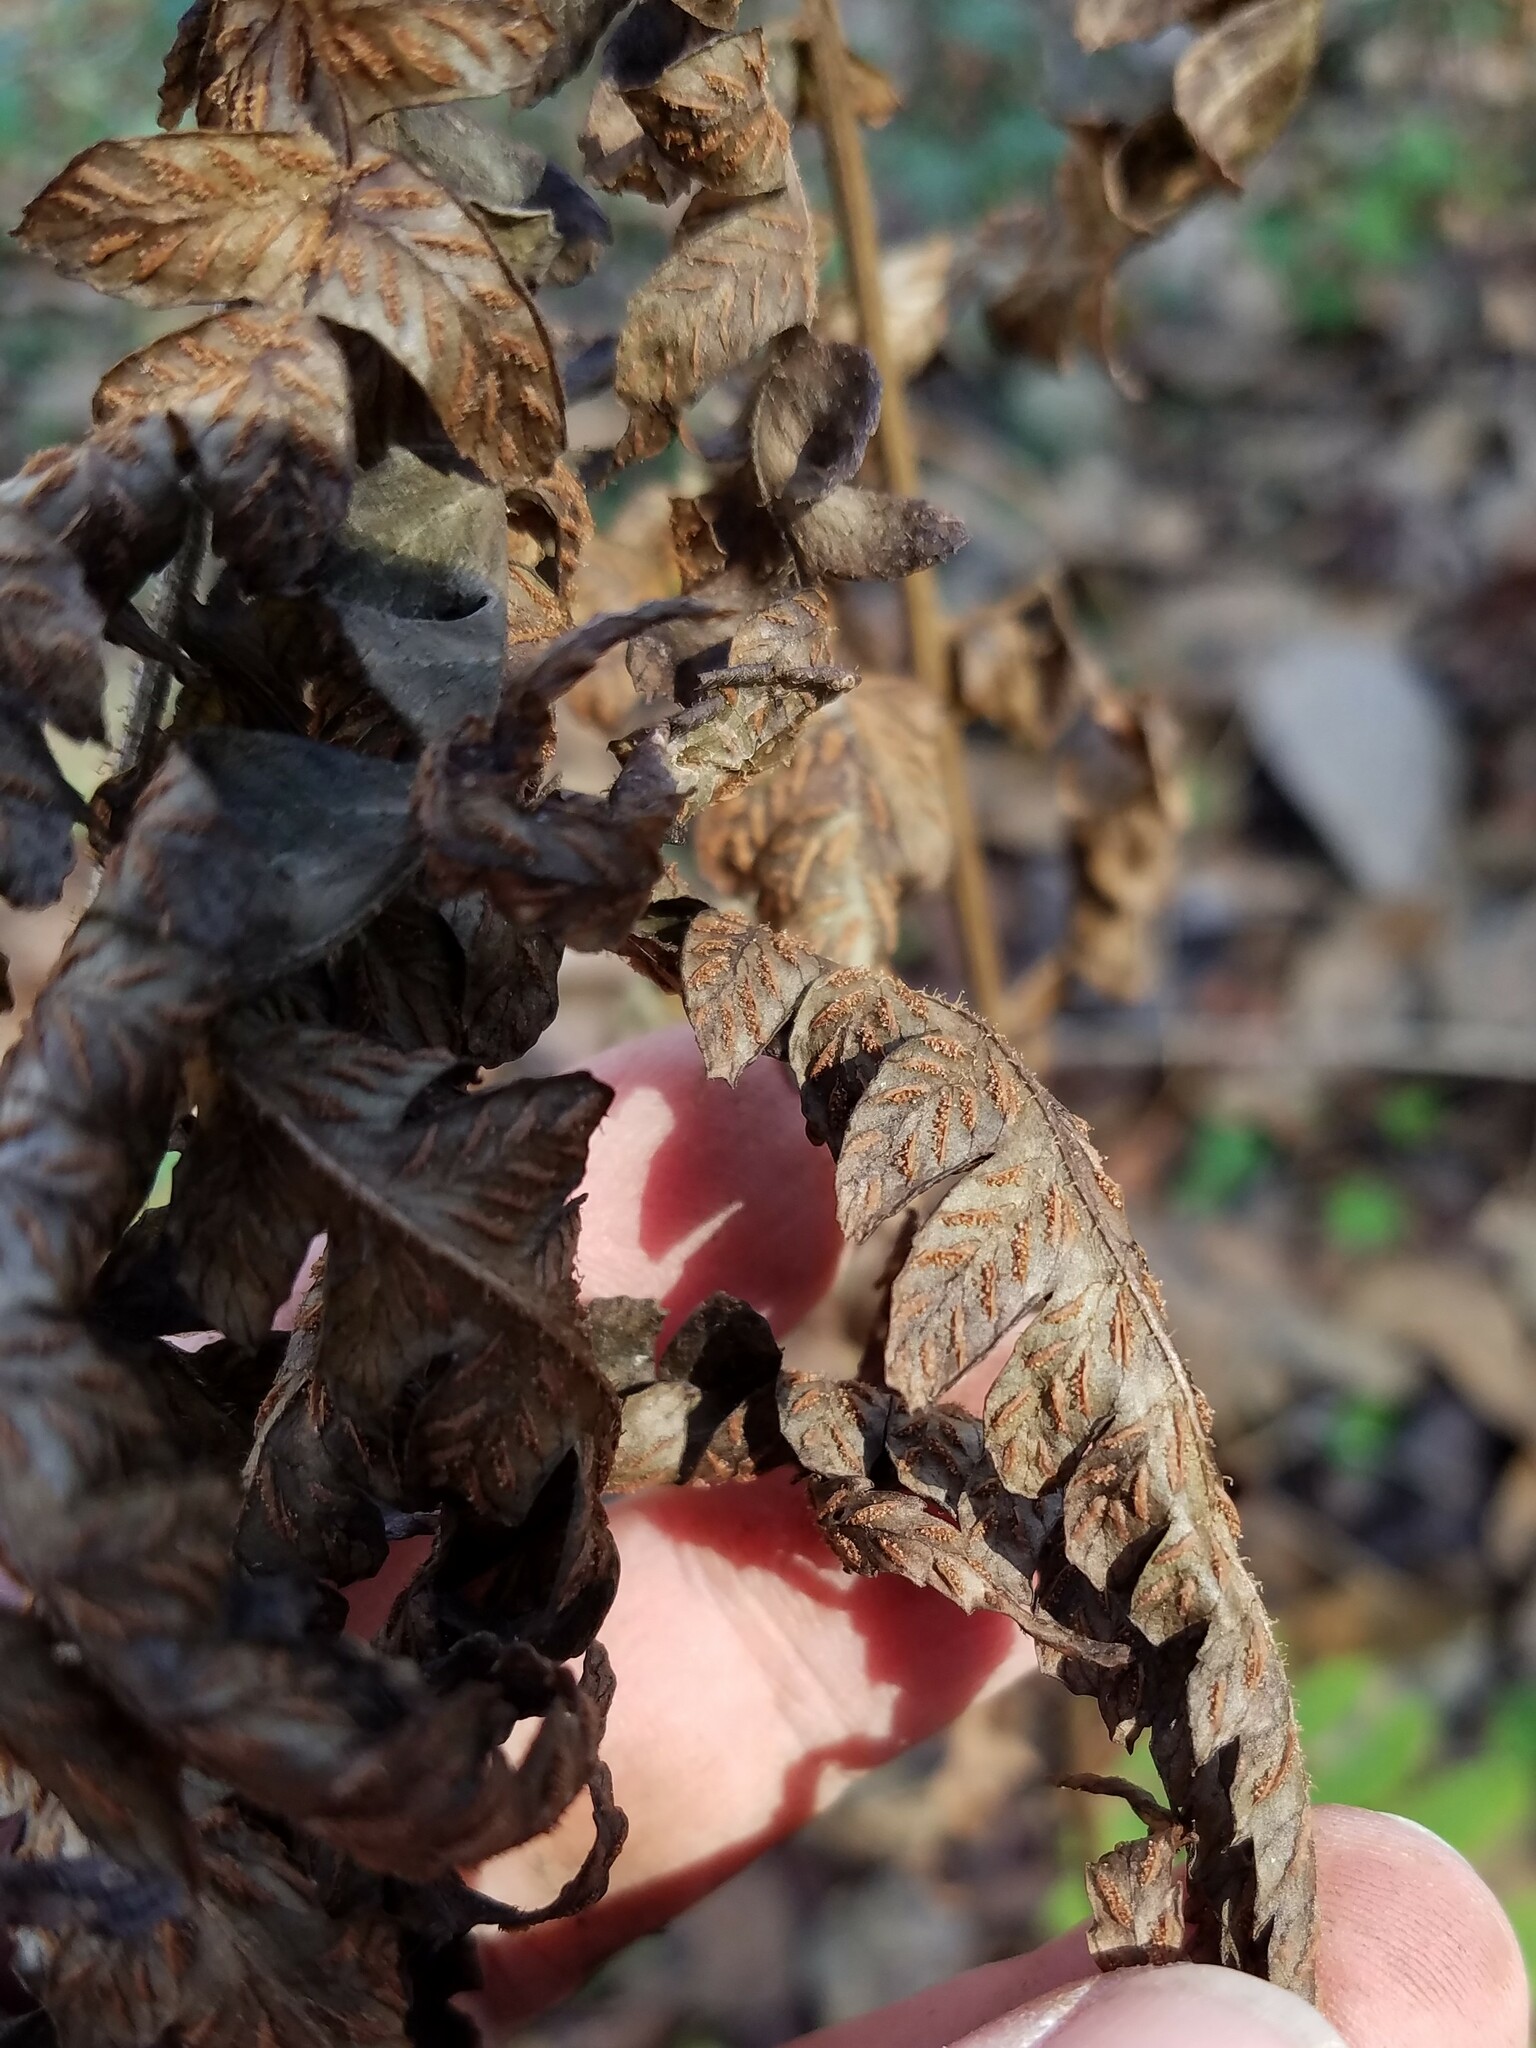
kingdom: Plantae
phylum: Tracheophyta
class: Polypodiopsida
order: Polypodiales
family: Thelypteridaceae
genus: Pelazoneuron
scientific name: Pelazoneuron kunthii
